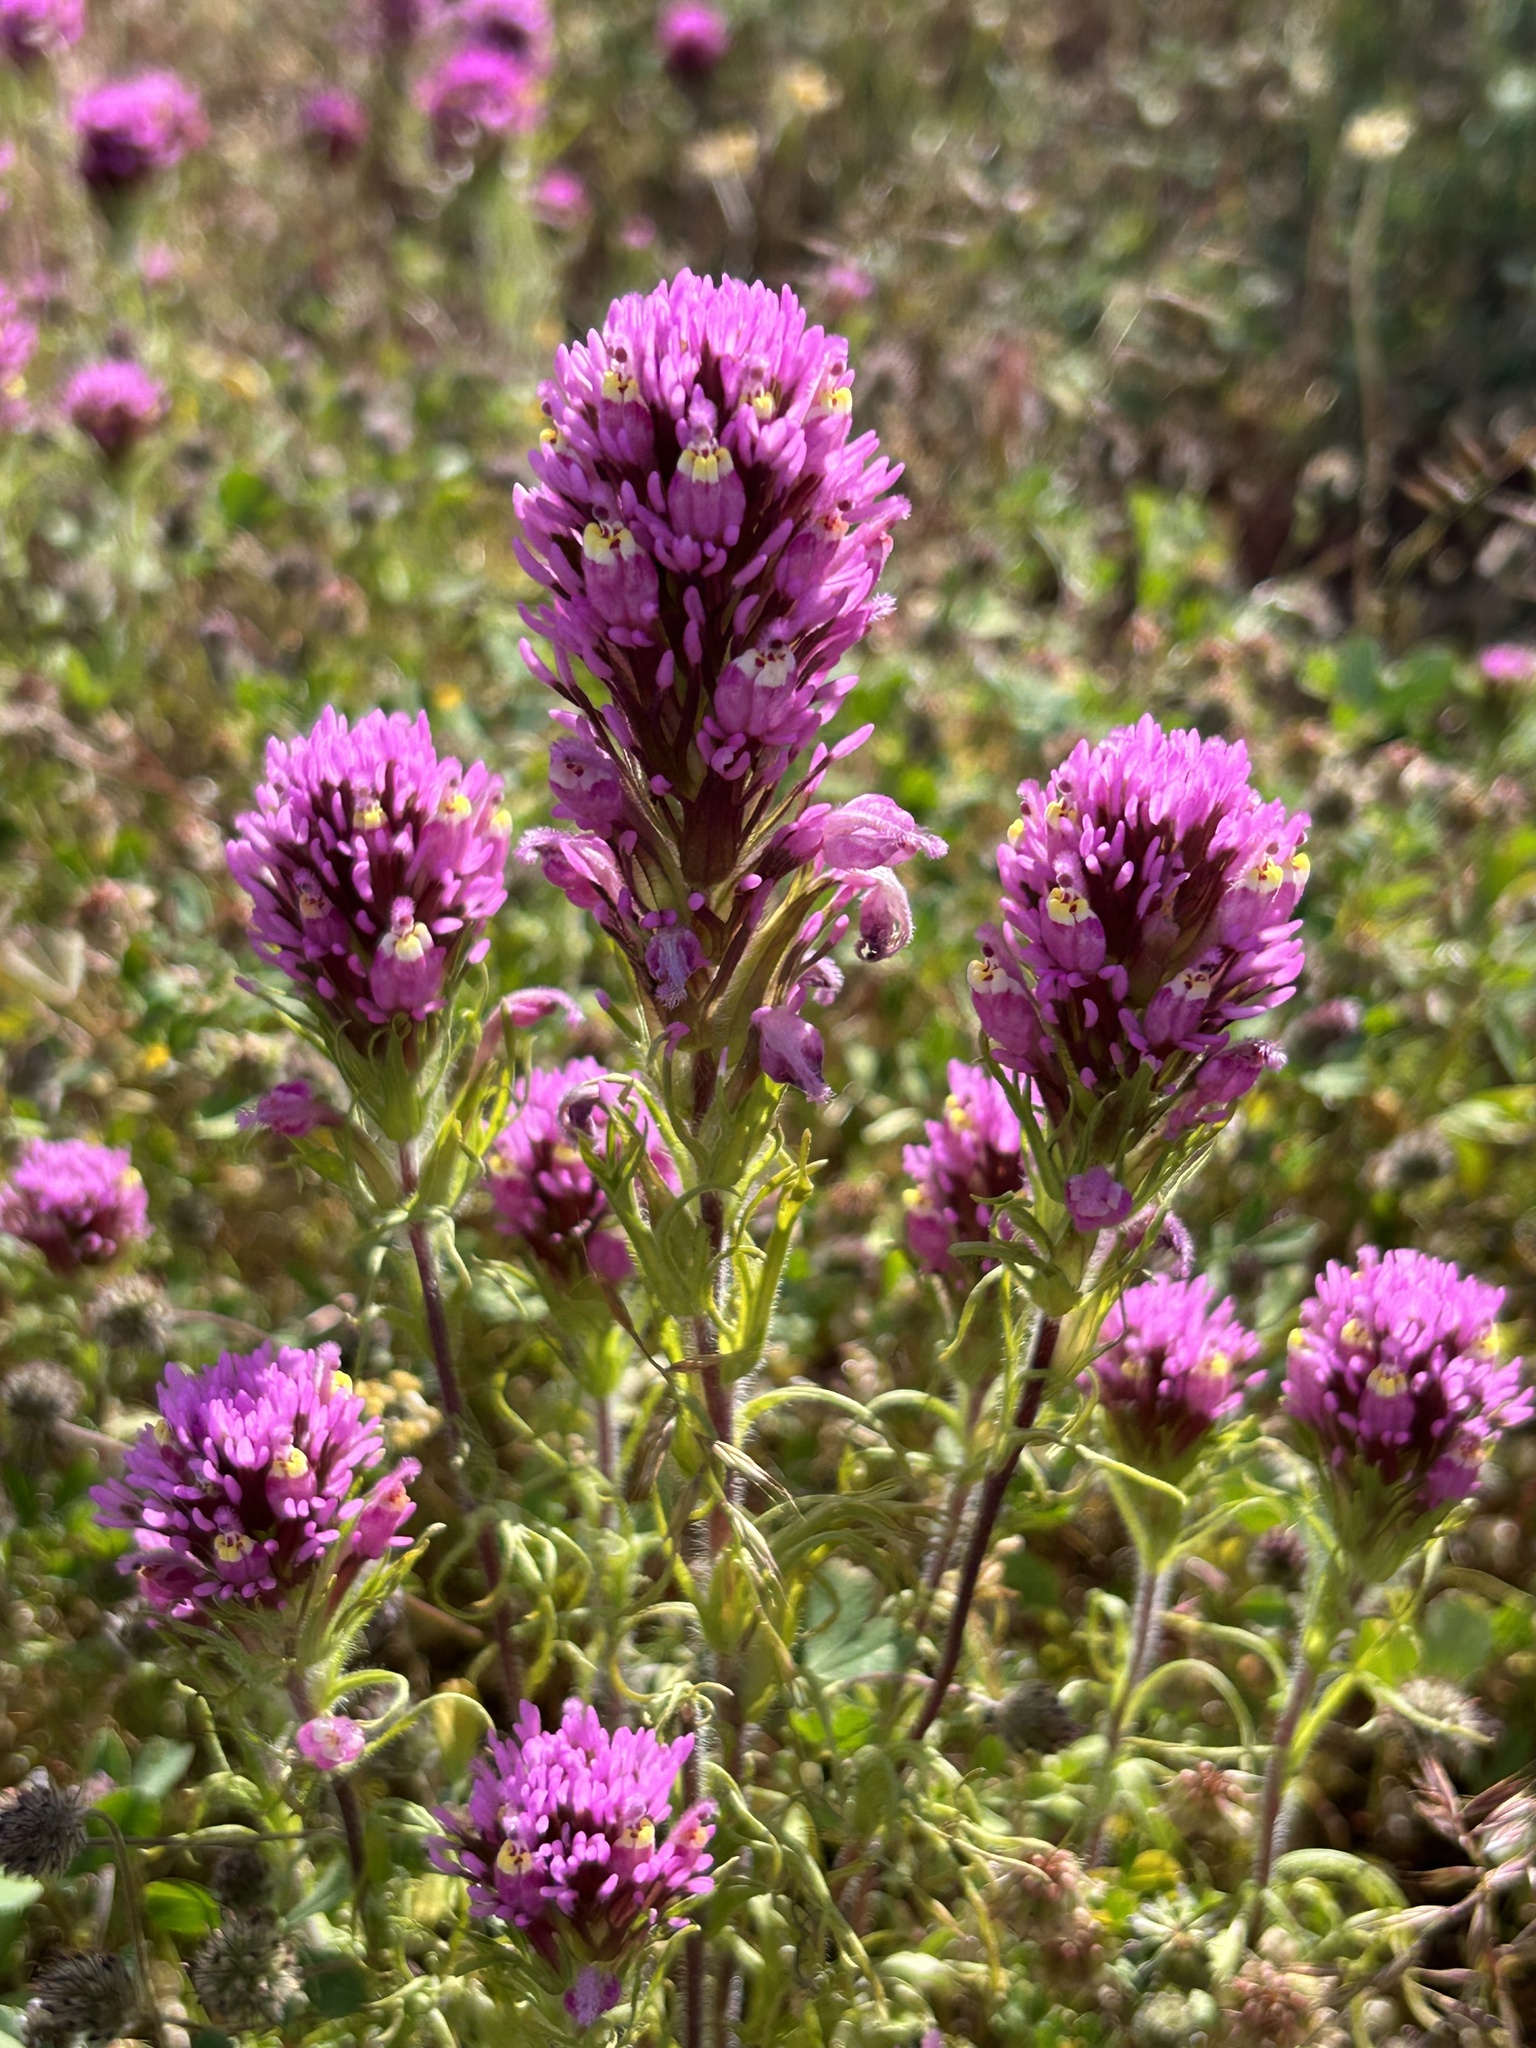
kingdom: Plantae
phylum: Tracheophyta
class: Magnoliopsida
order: Lamiales
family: Orobanchaceae
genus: Castilleja
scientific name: Castilleja exserta
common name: Purple owl-clover
